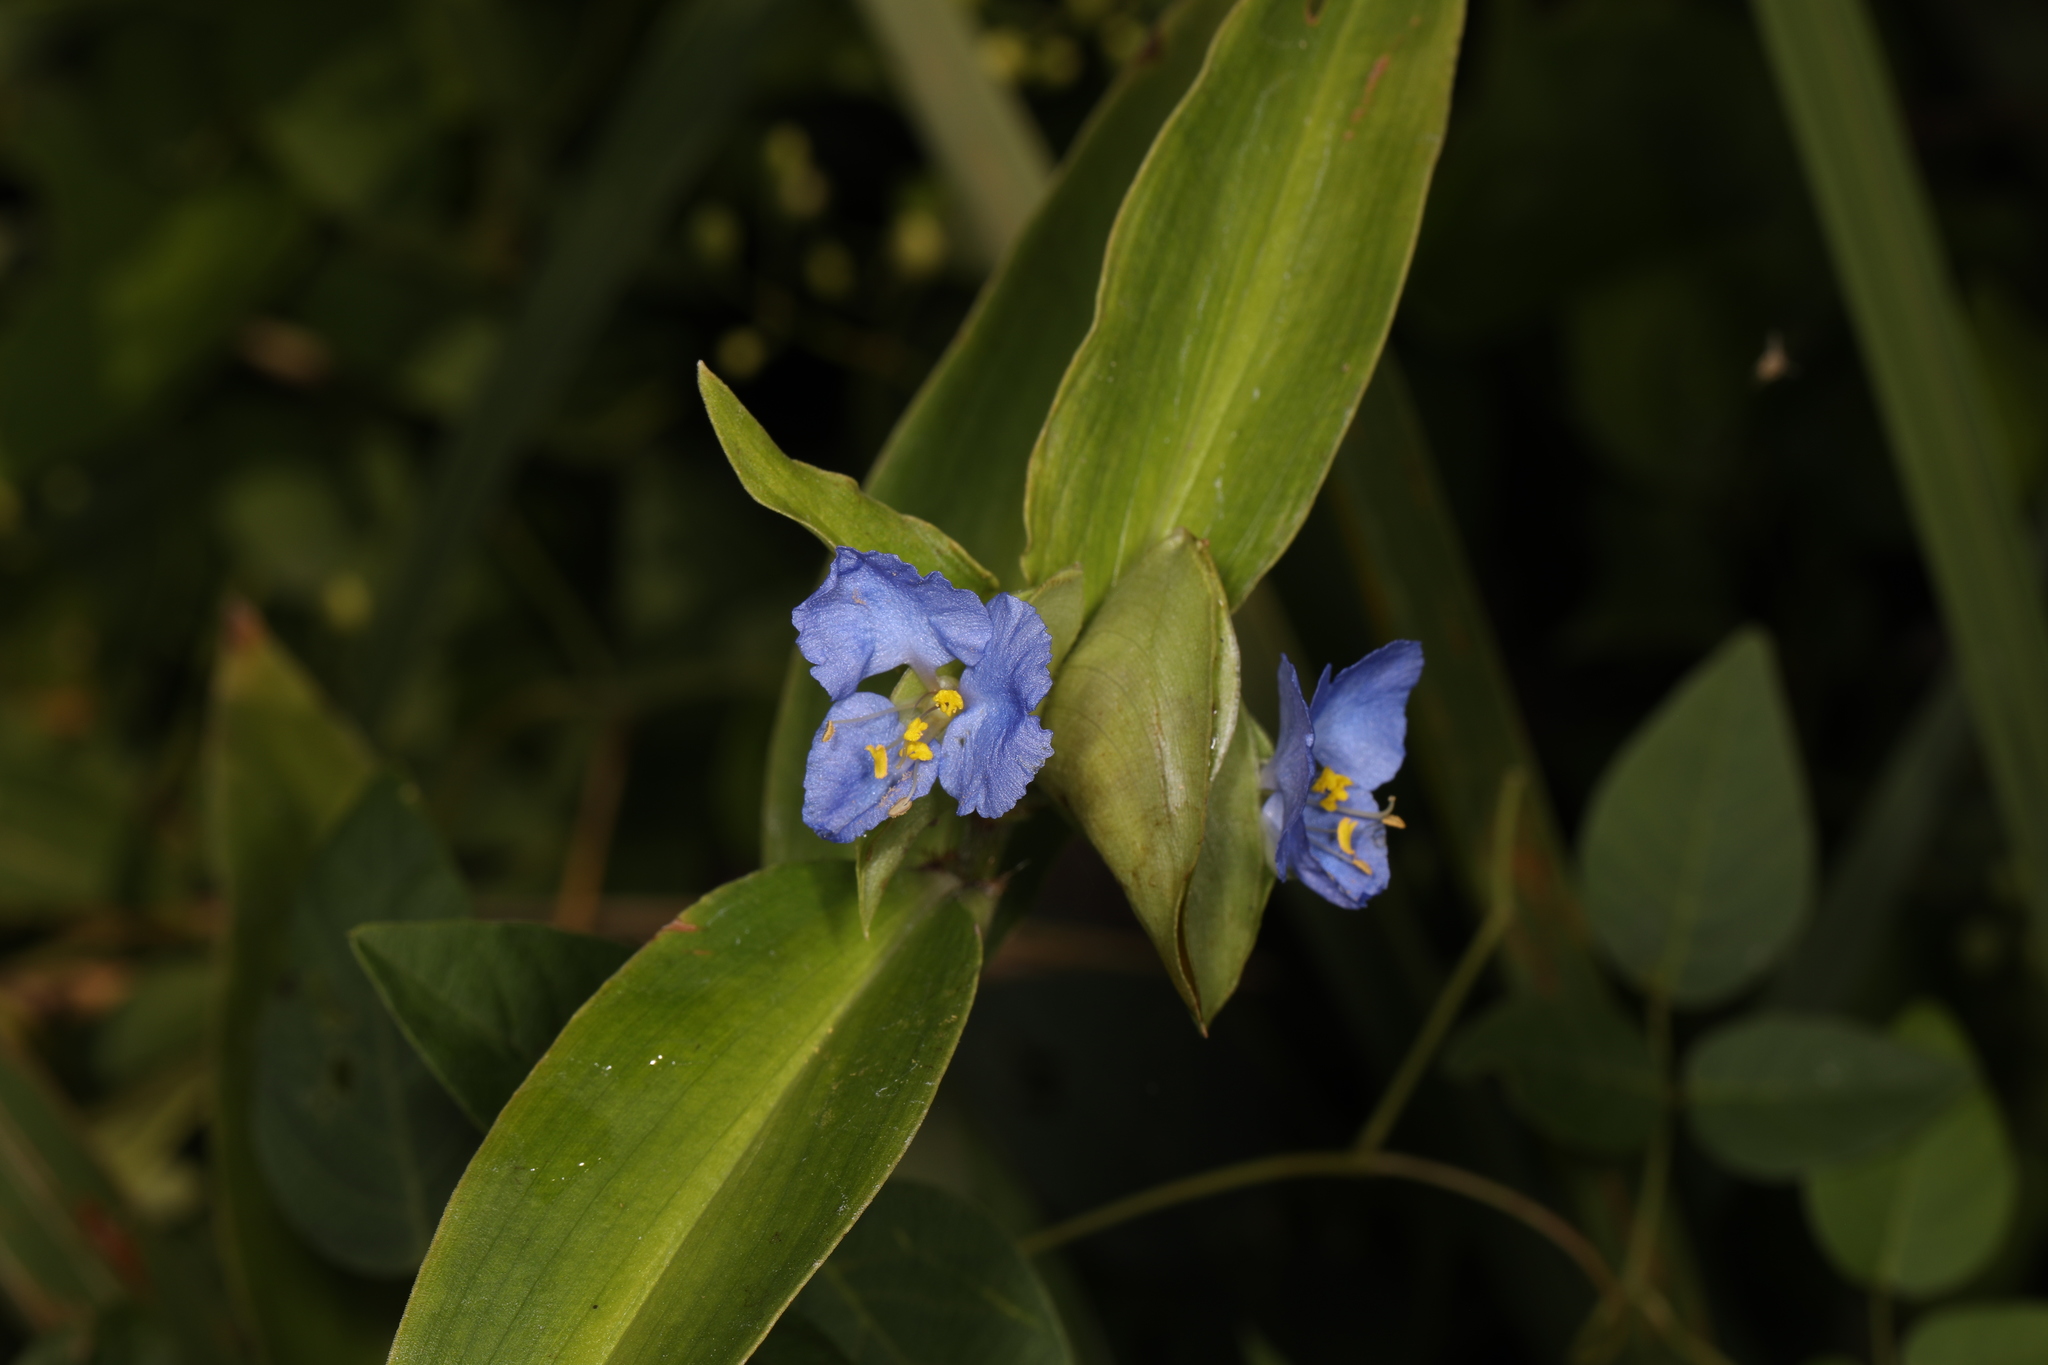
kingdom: Plantae
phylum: Tracheophyta
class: Liliopsida
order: Commelinales
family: Commelinaceae
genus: Commelina
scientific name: Commelina virginica
